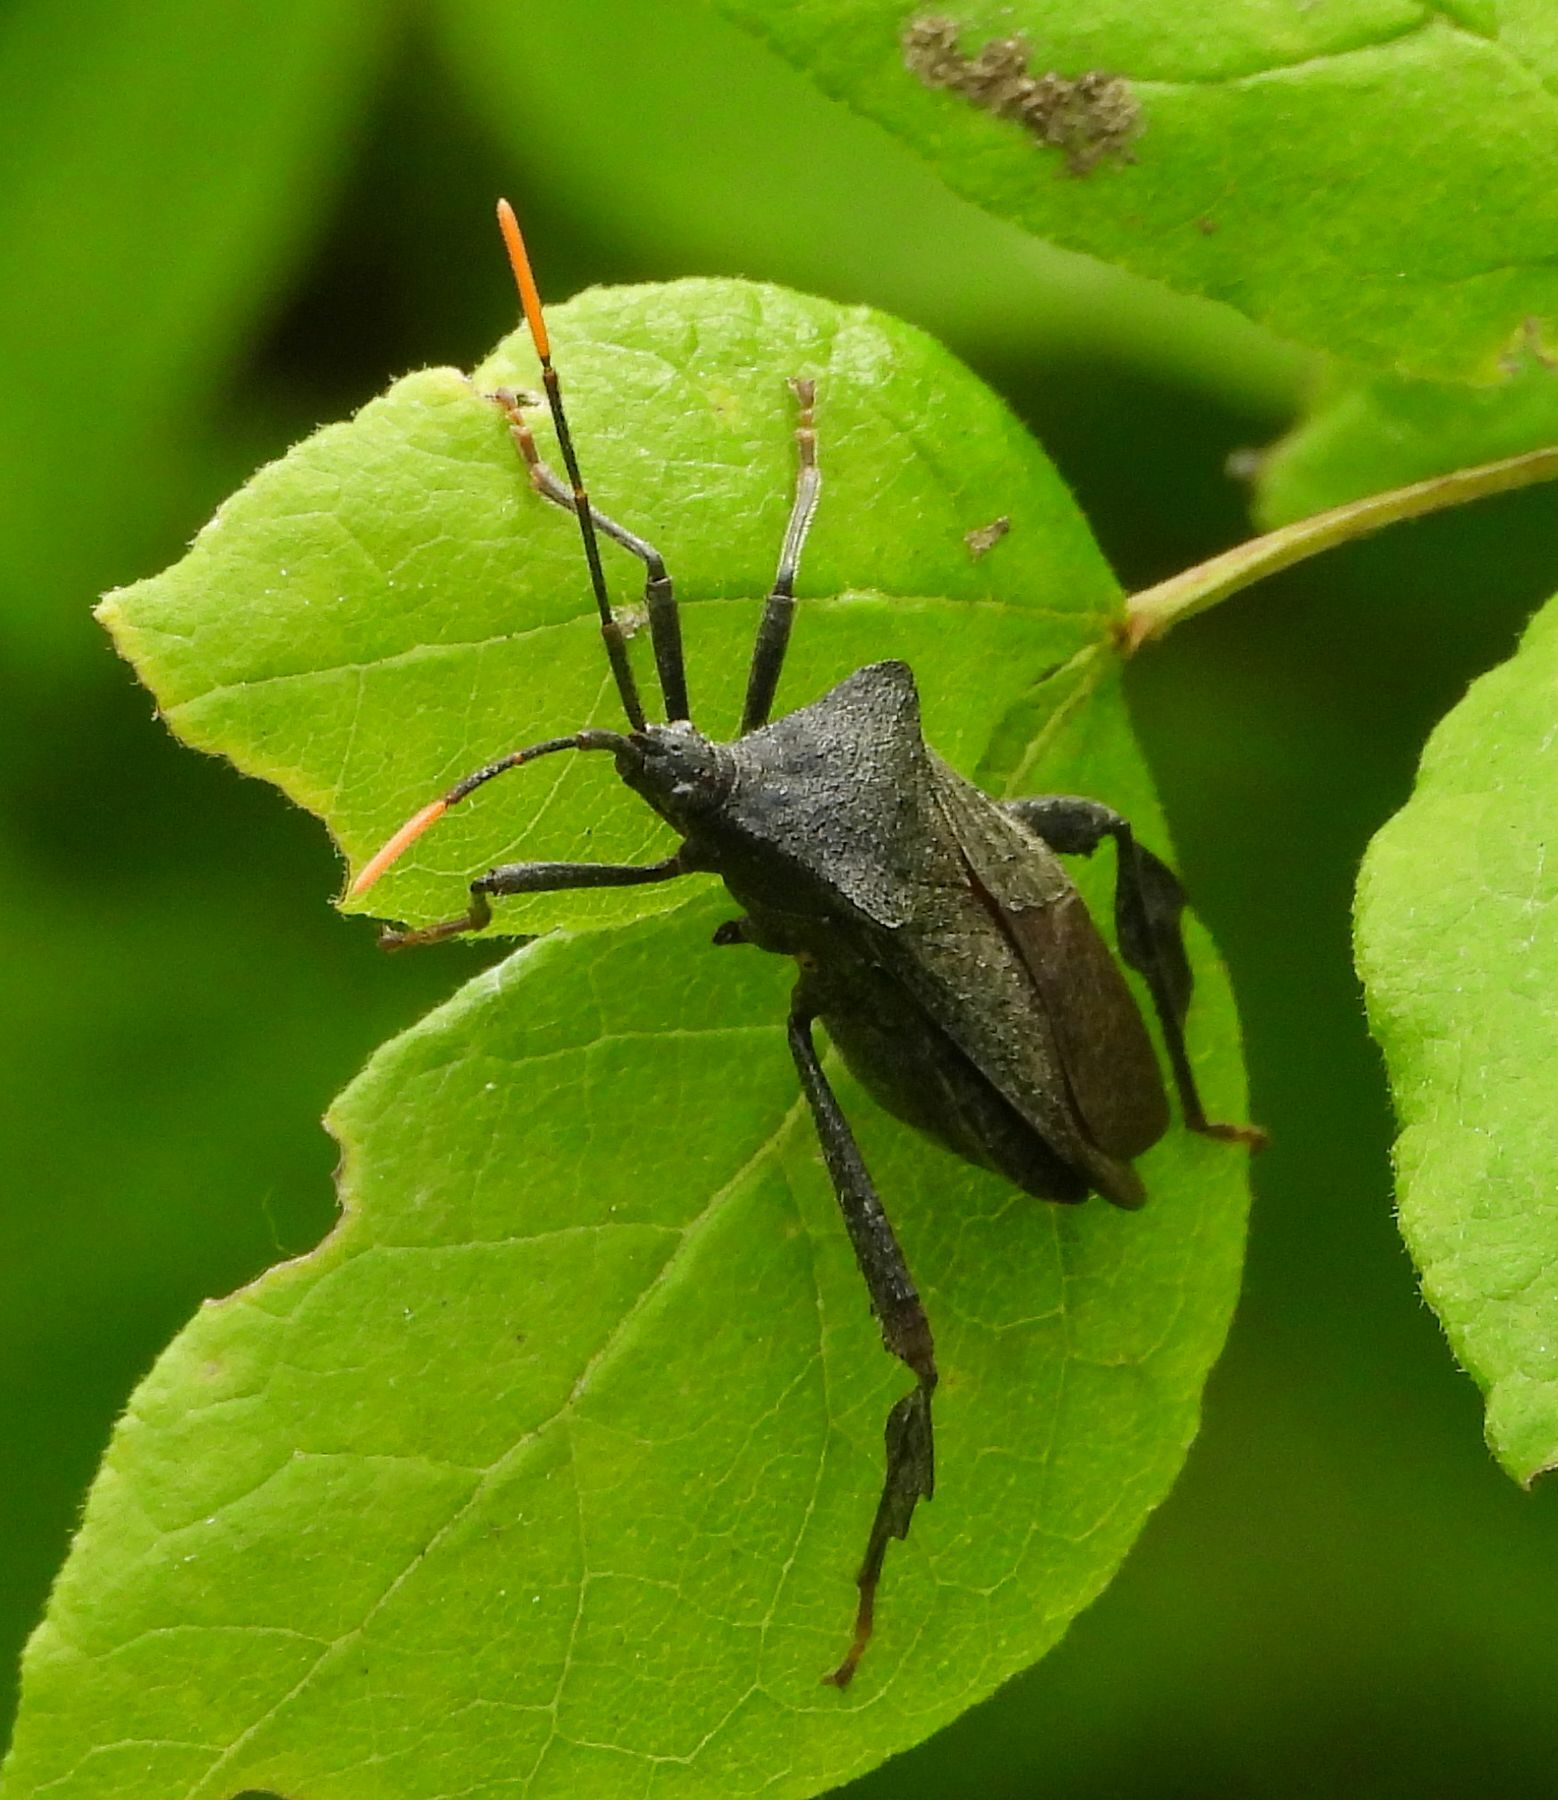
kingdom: Animalia
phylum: Arthropoda
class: Insecta
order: Hemiptera
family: Coreidae
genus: Acanthocephala
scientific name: Acanthocephala terminalis
